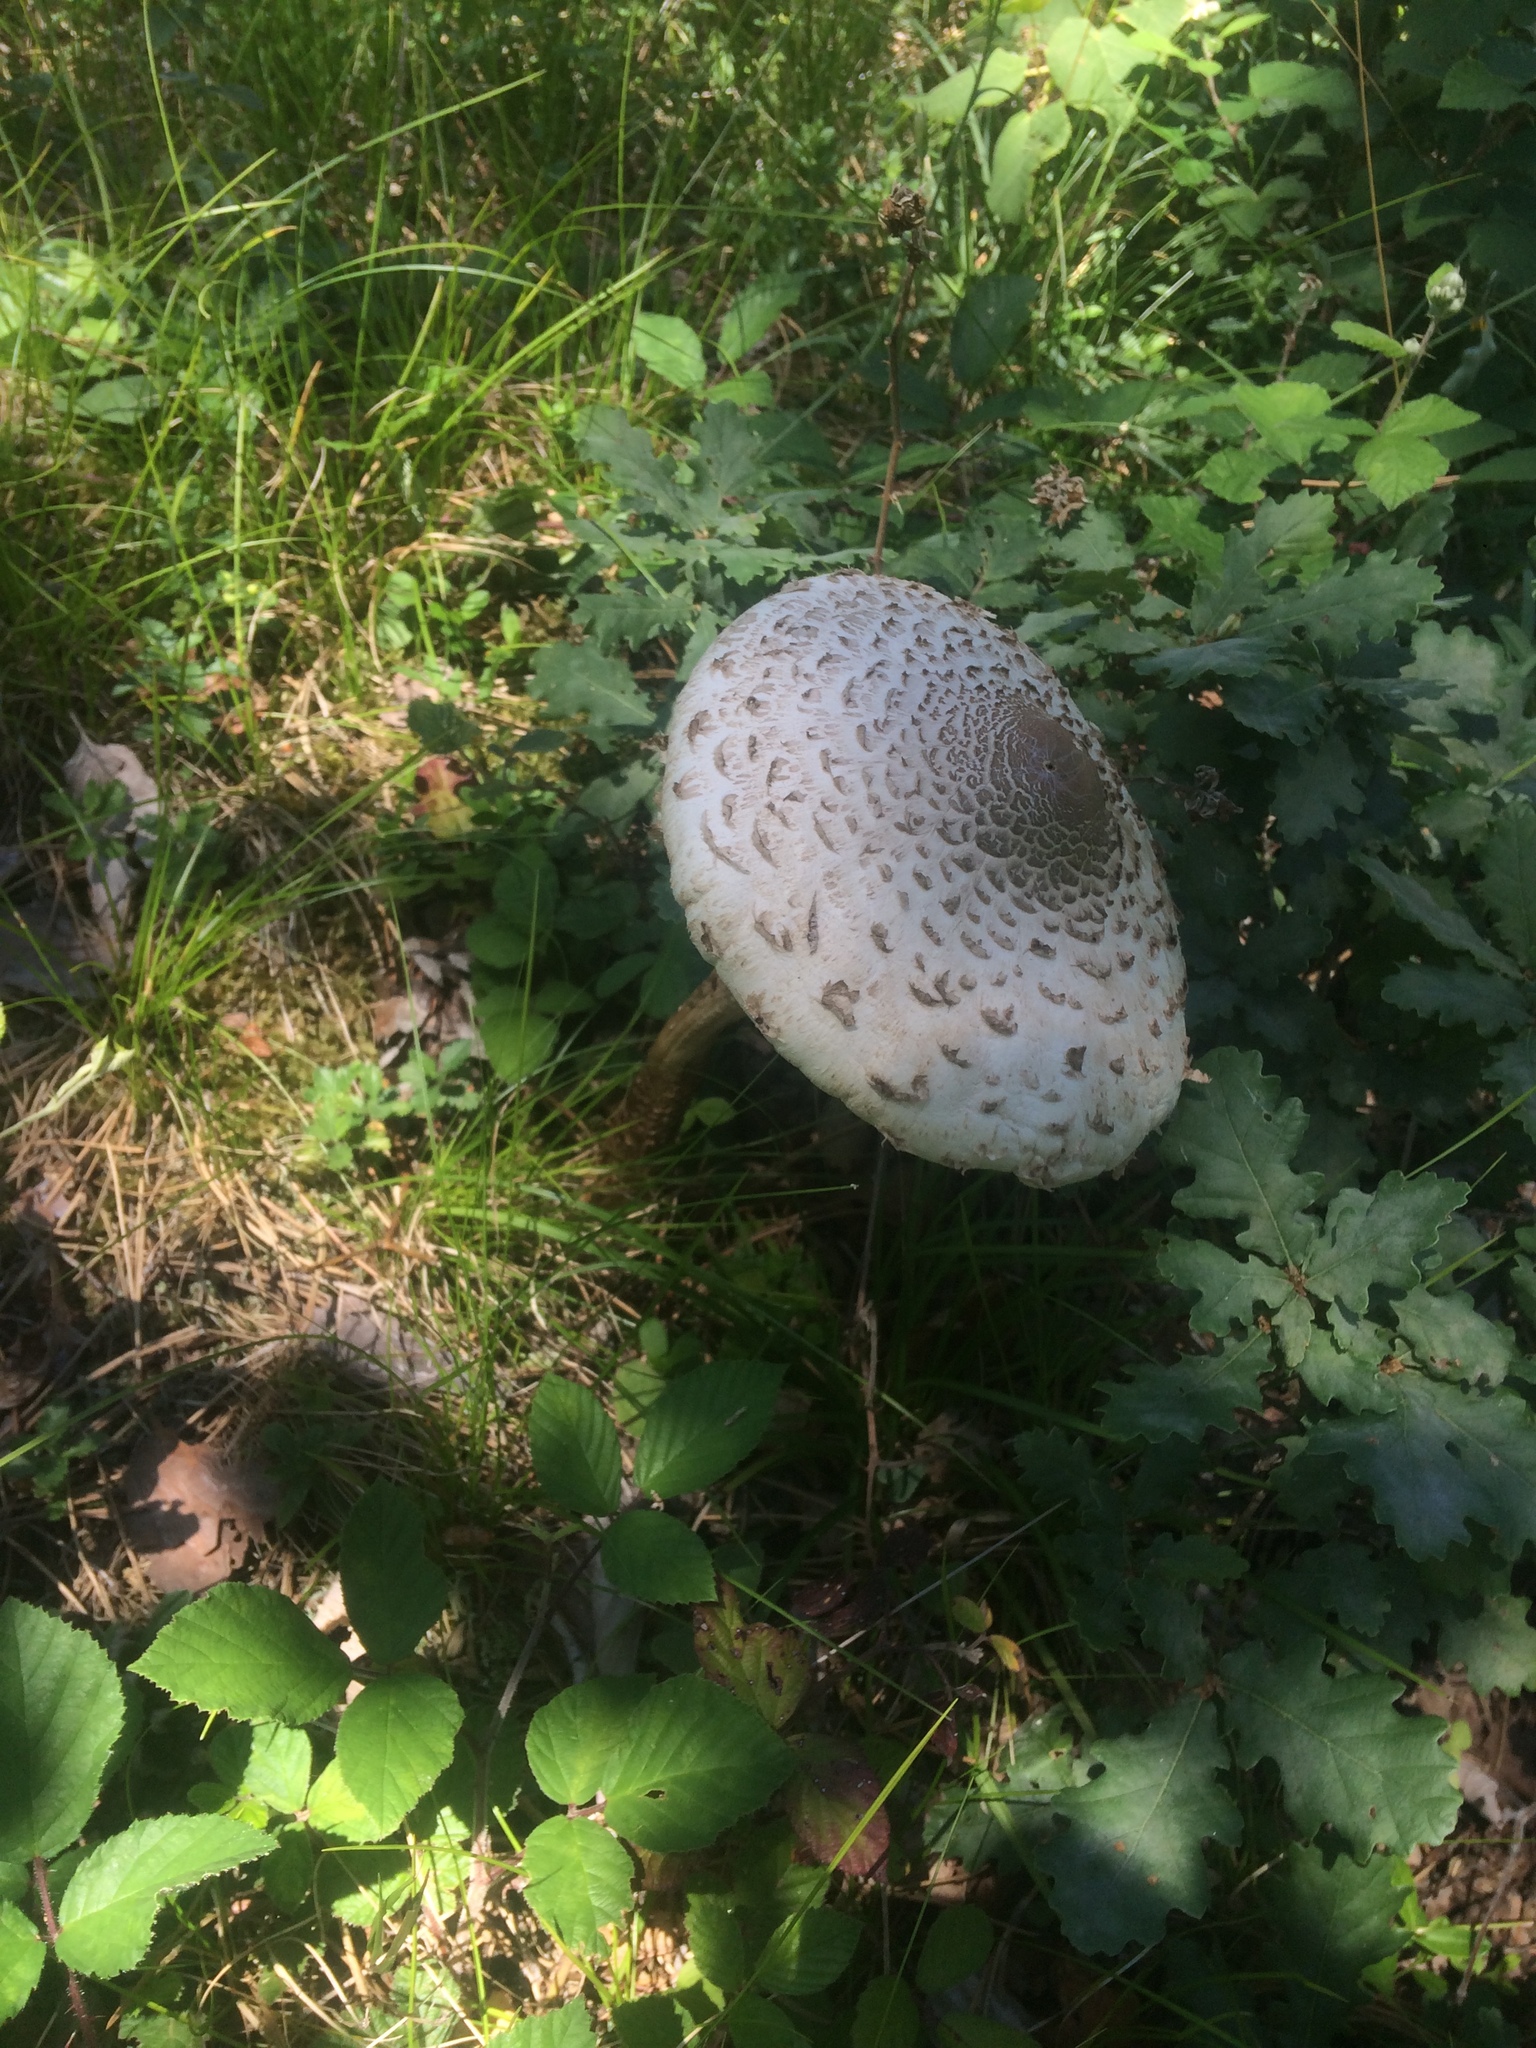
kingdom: Fungi
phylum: Basidiomycota
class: Agaricomycetes
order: Agaricales
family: Agaricaceae
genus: Macrolepiota
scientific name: Macrolepiota procera
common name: Parasol
